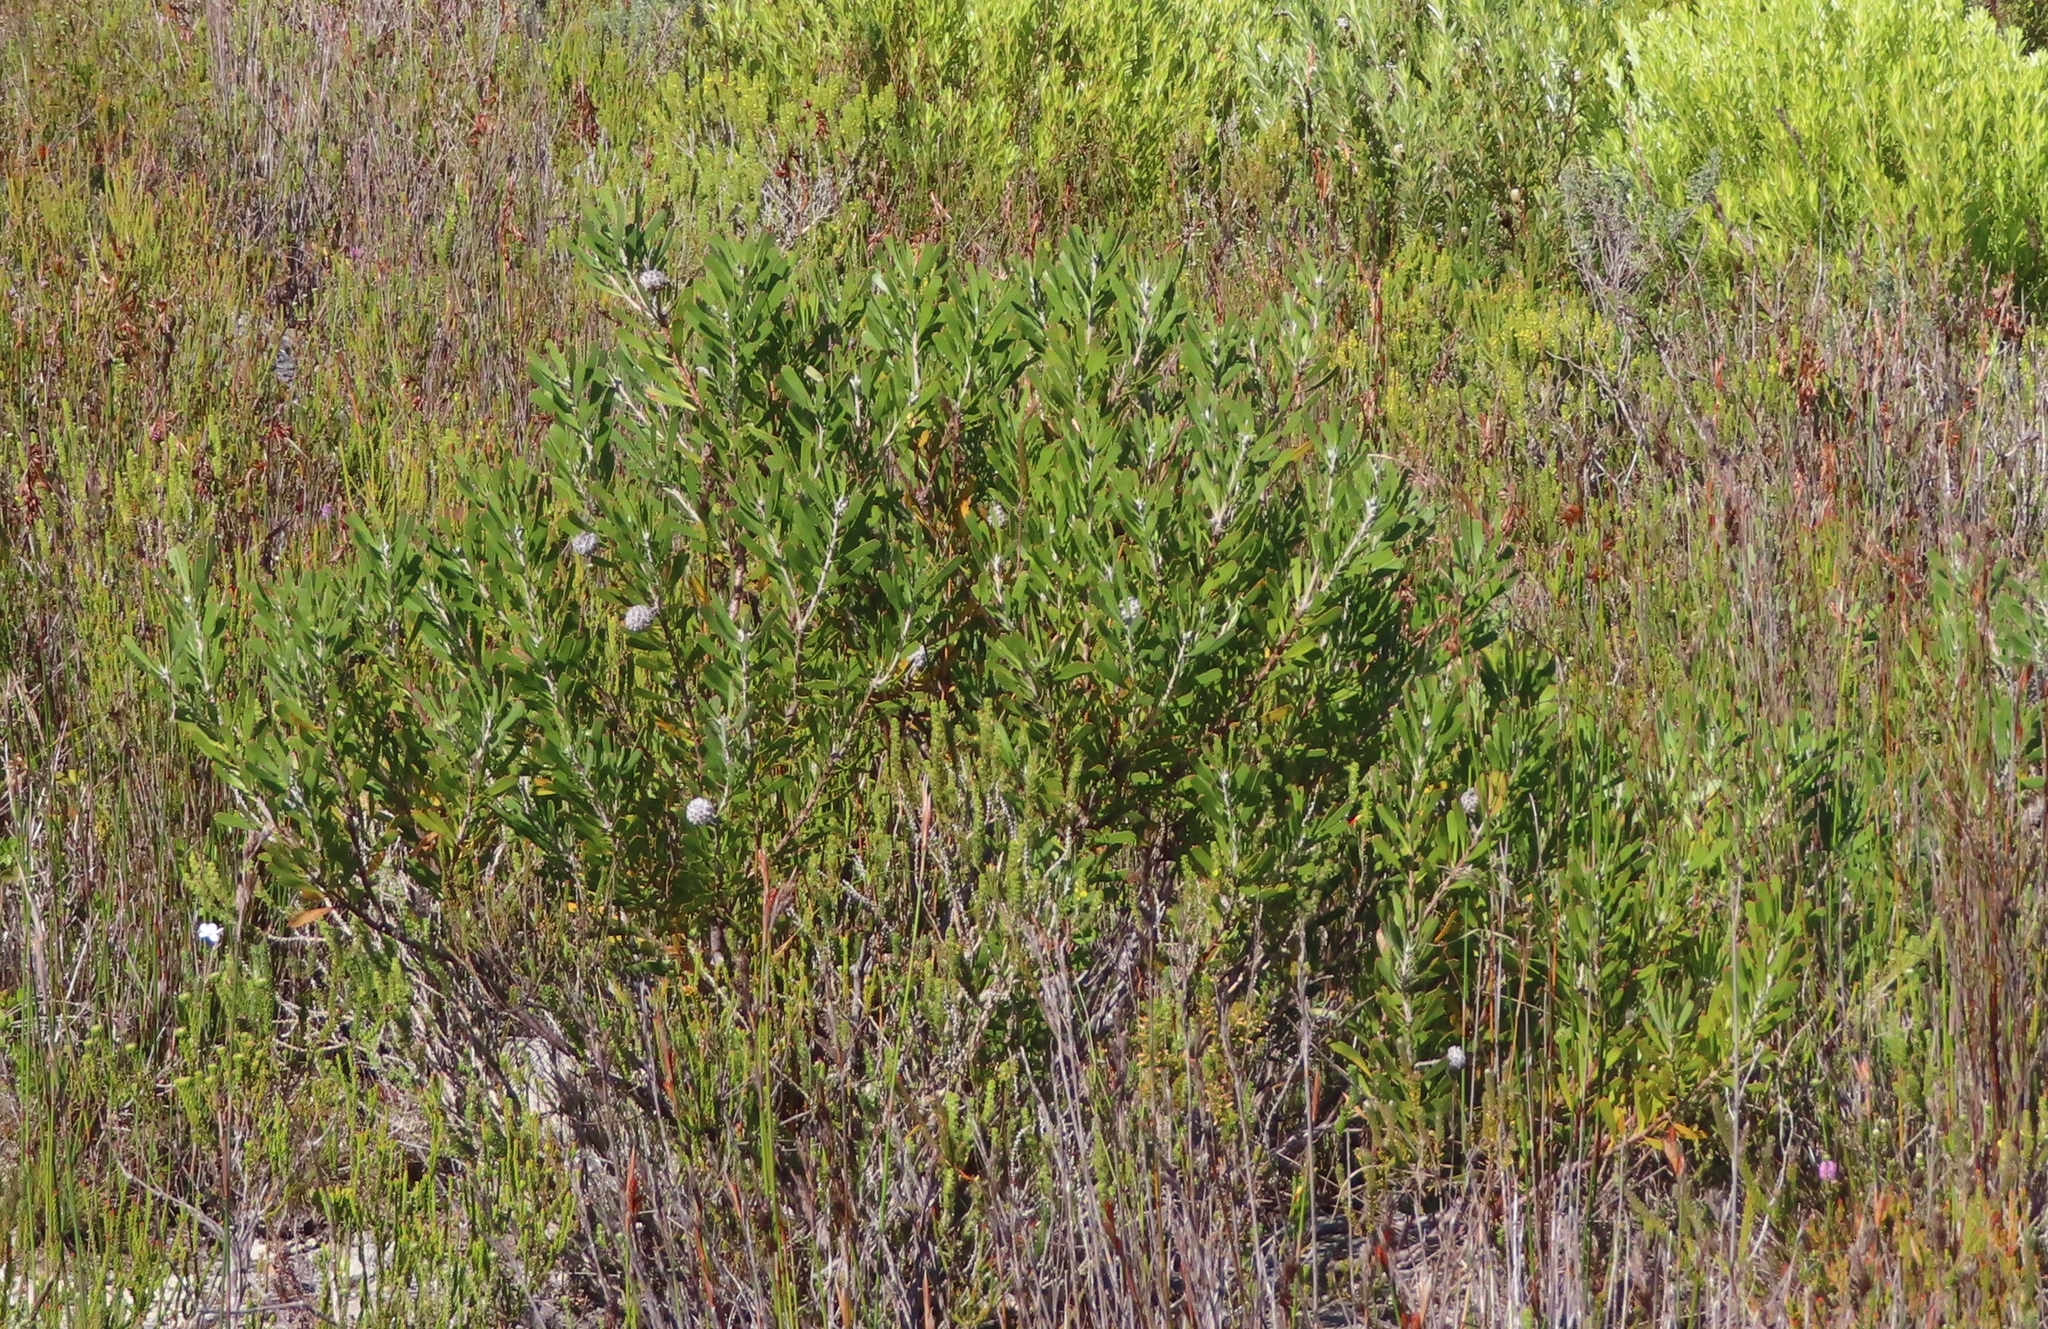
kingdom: Plantae
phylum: Tracheophyta
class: Magnoliopsida
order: Proteales
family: Proteaceae
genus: Leucospermum
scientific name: Leucospermum truncatum
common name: Limestone pincushion
